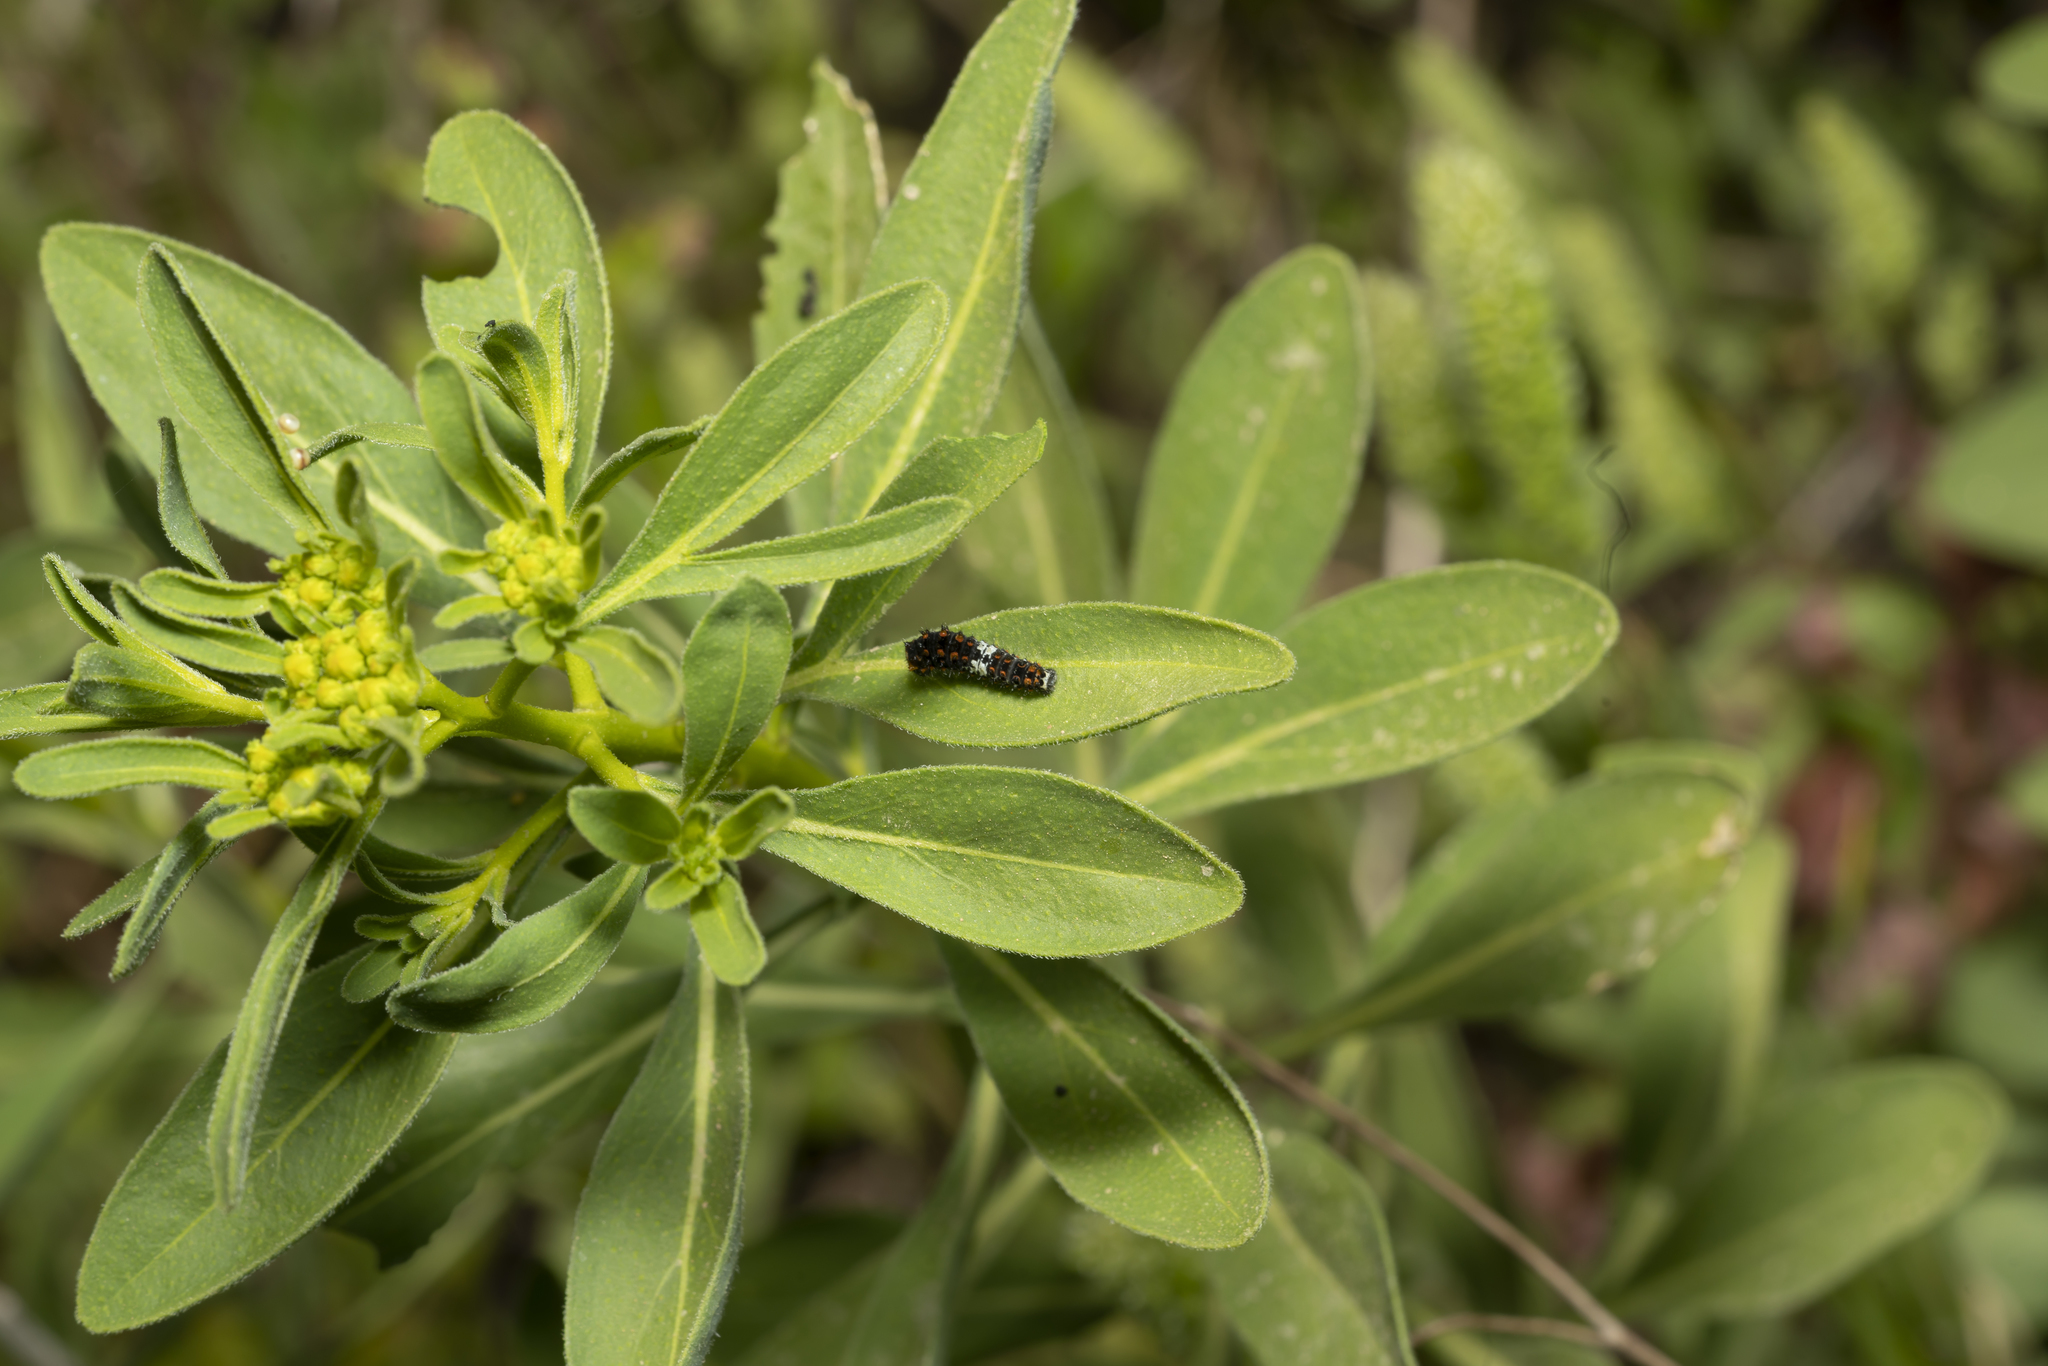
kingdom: Plantae
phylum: Tracheophyta
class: Magnoliopsida
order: Sapindales
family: Rutaceae
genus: Haplophyllum
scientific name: Haplophyllum buxbaumii
